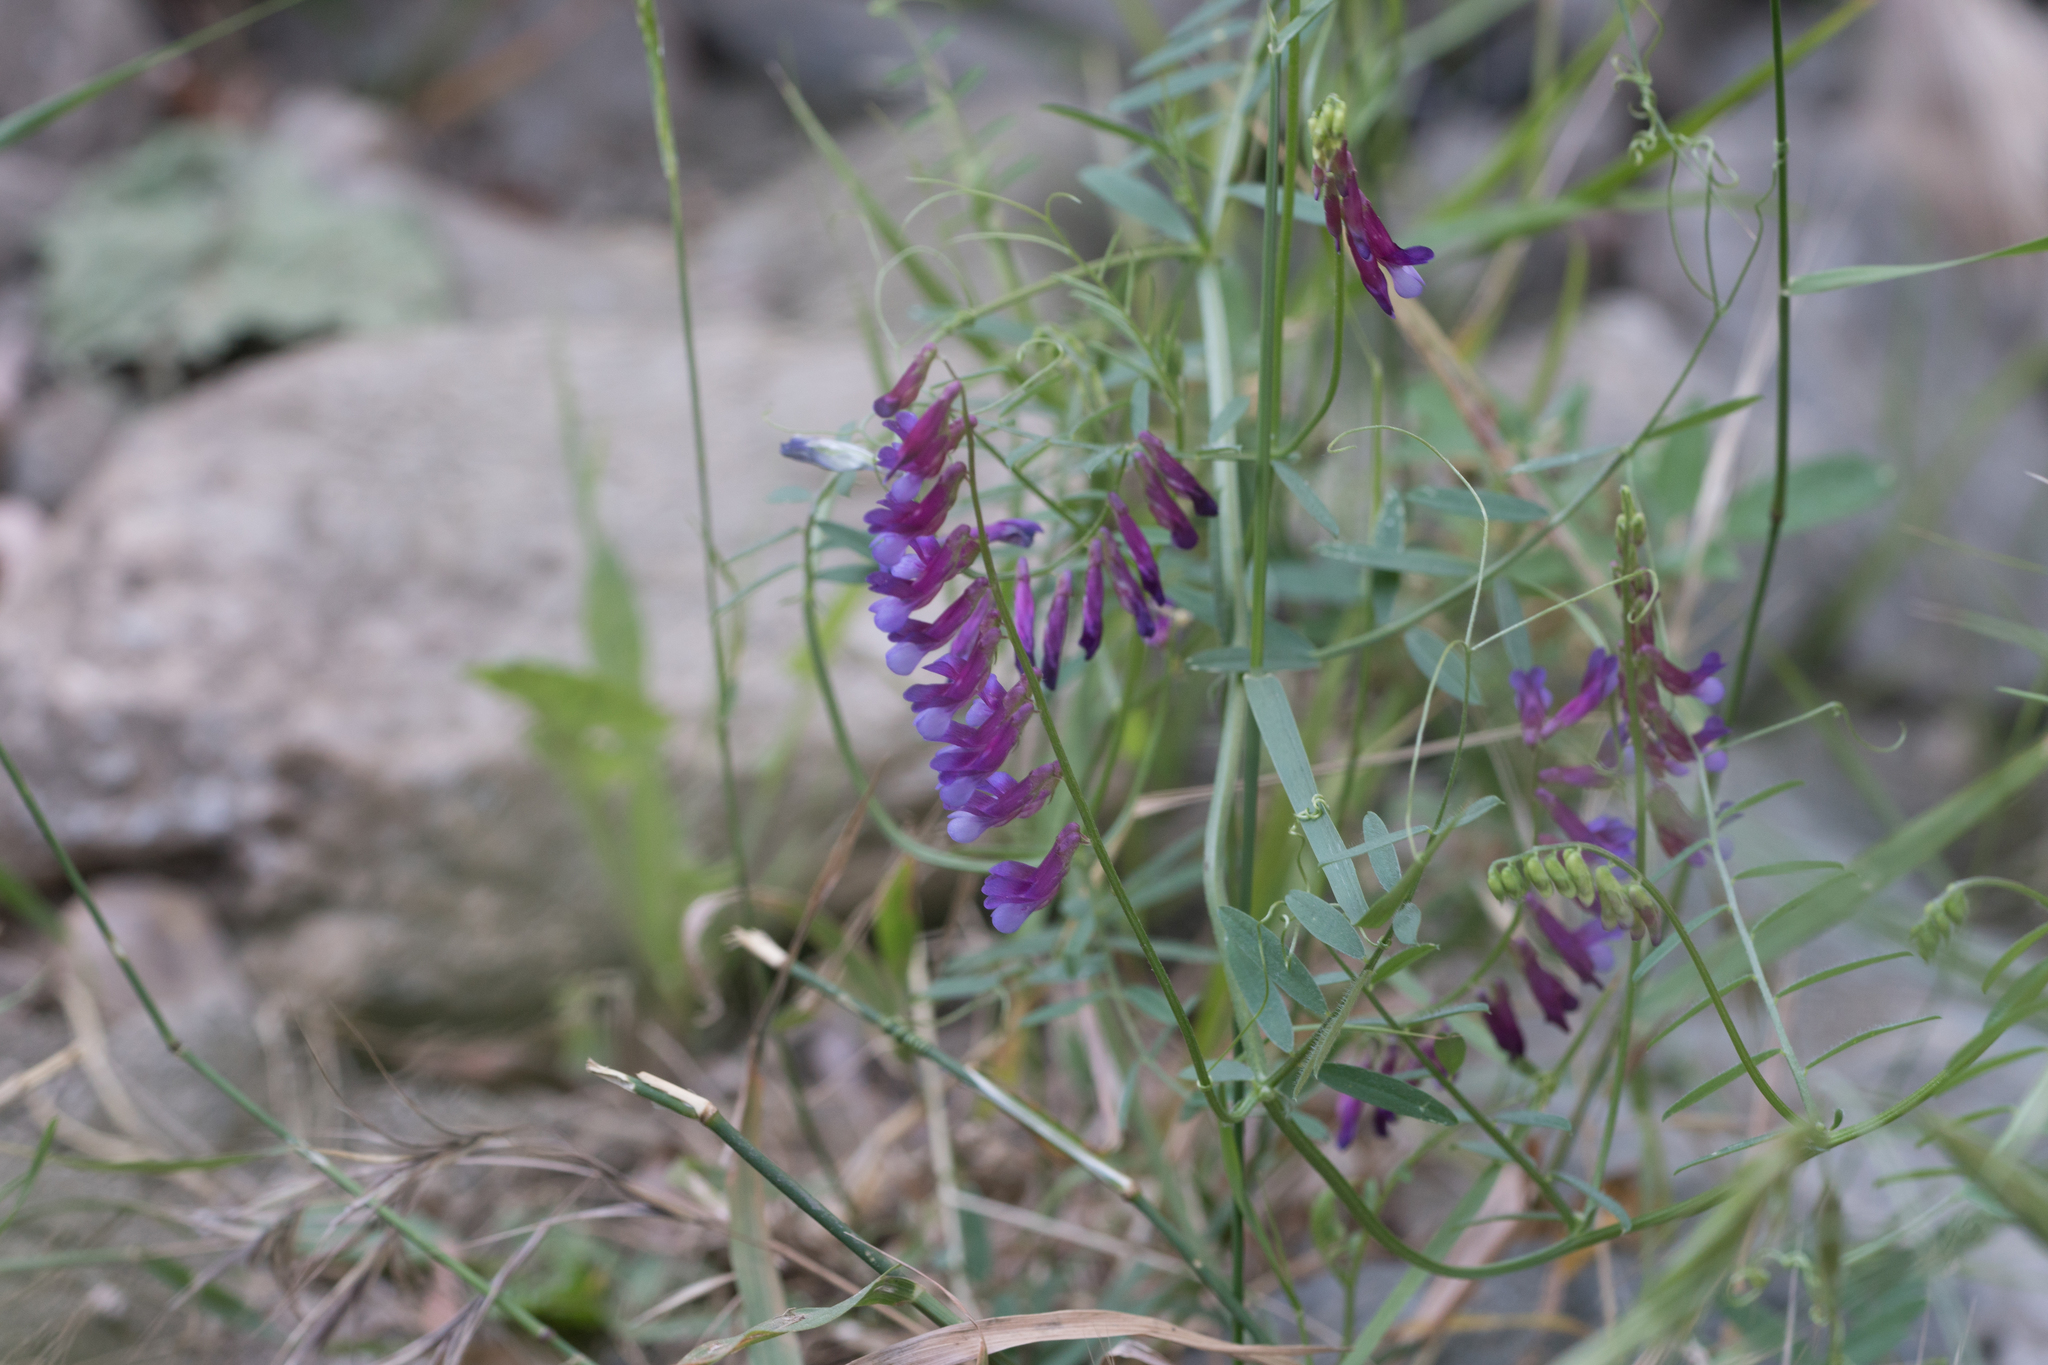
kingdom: Plantae
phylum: Tracheophyta
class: Magnoliopsida
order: Fabales
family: Fabaceae
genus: Vicia
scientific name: Vicia villosa
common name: Fodder vetch
